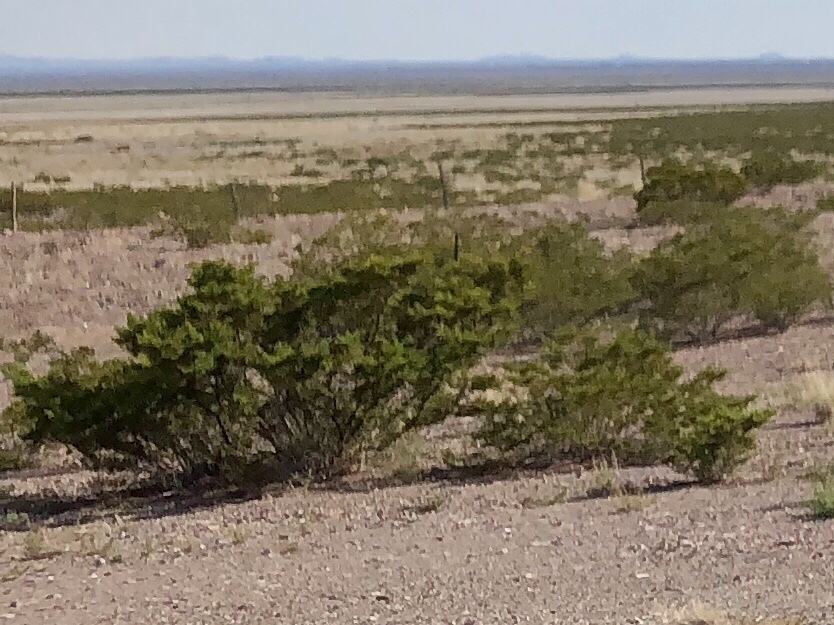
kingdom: Plantae
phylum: Tracheophyta
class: Magnoliopsida
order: Zygophyllales
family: Zygophyllaceae
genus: Larrea
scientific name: Larrea tridentata
